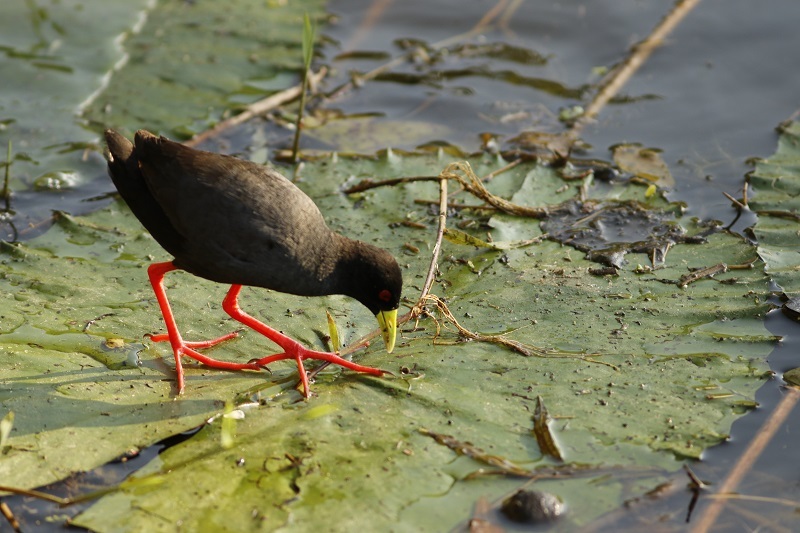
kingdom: Animalia
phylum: Chordata
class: Aves
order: Gruiformes
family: Rallidae
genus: Amaurornis
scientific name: Amaurornis flavirostra
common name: Black crake
